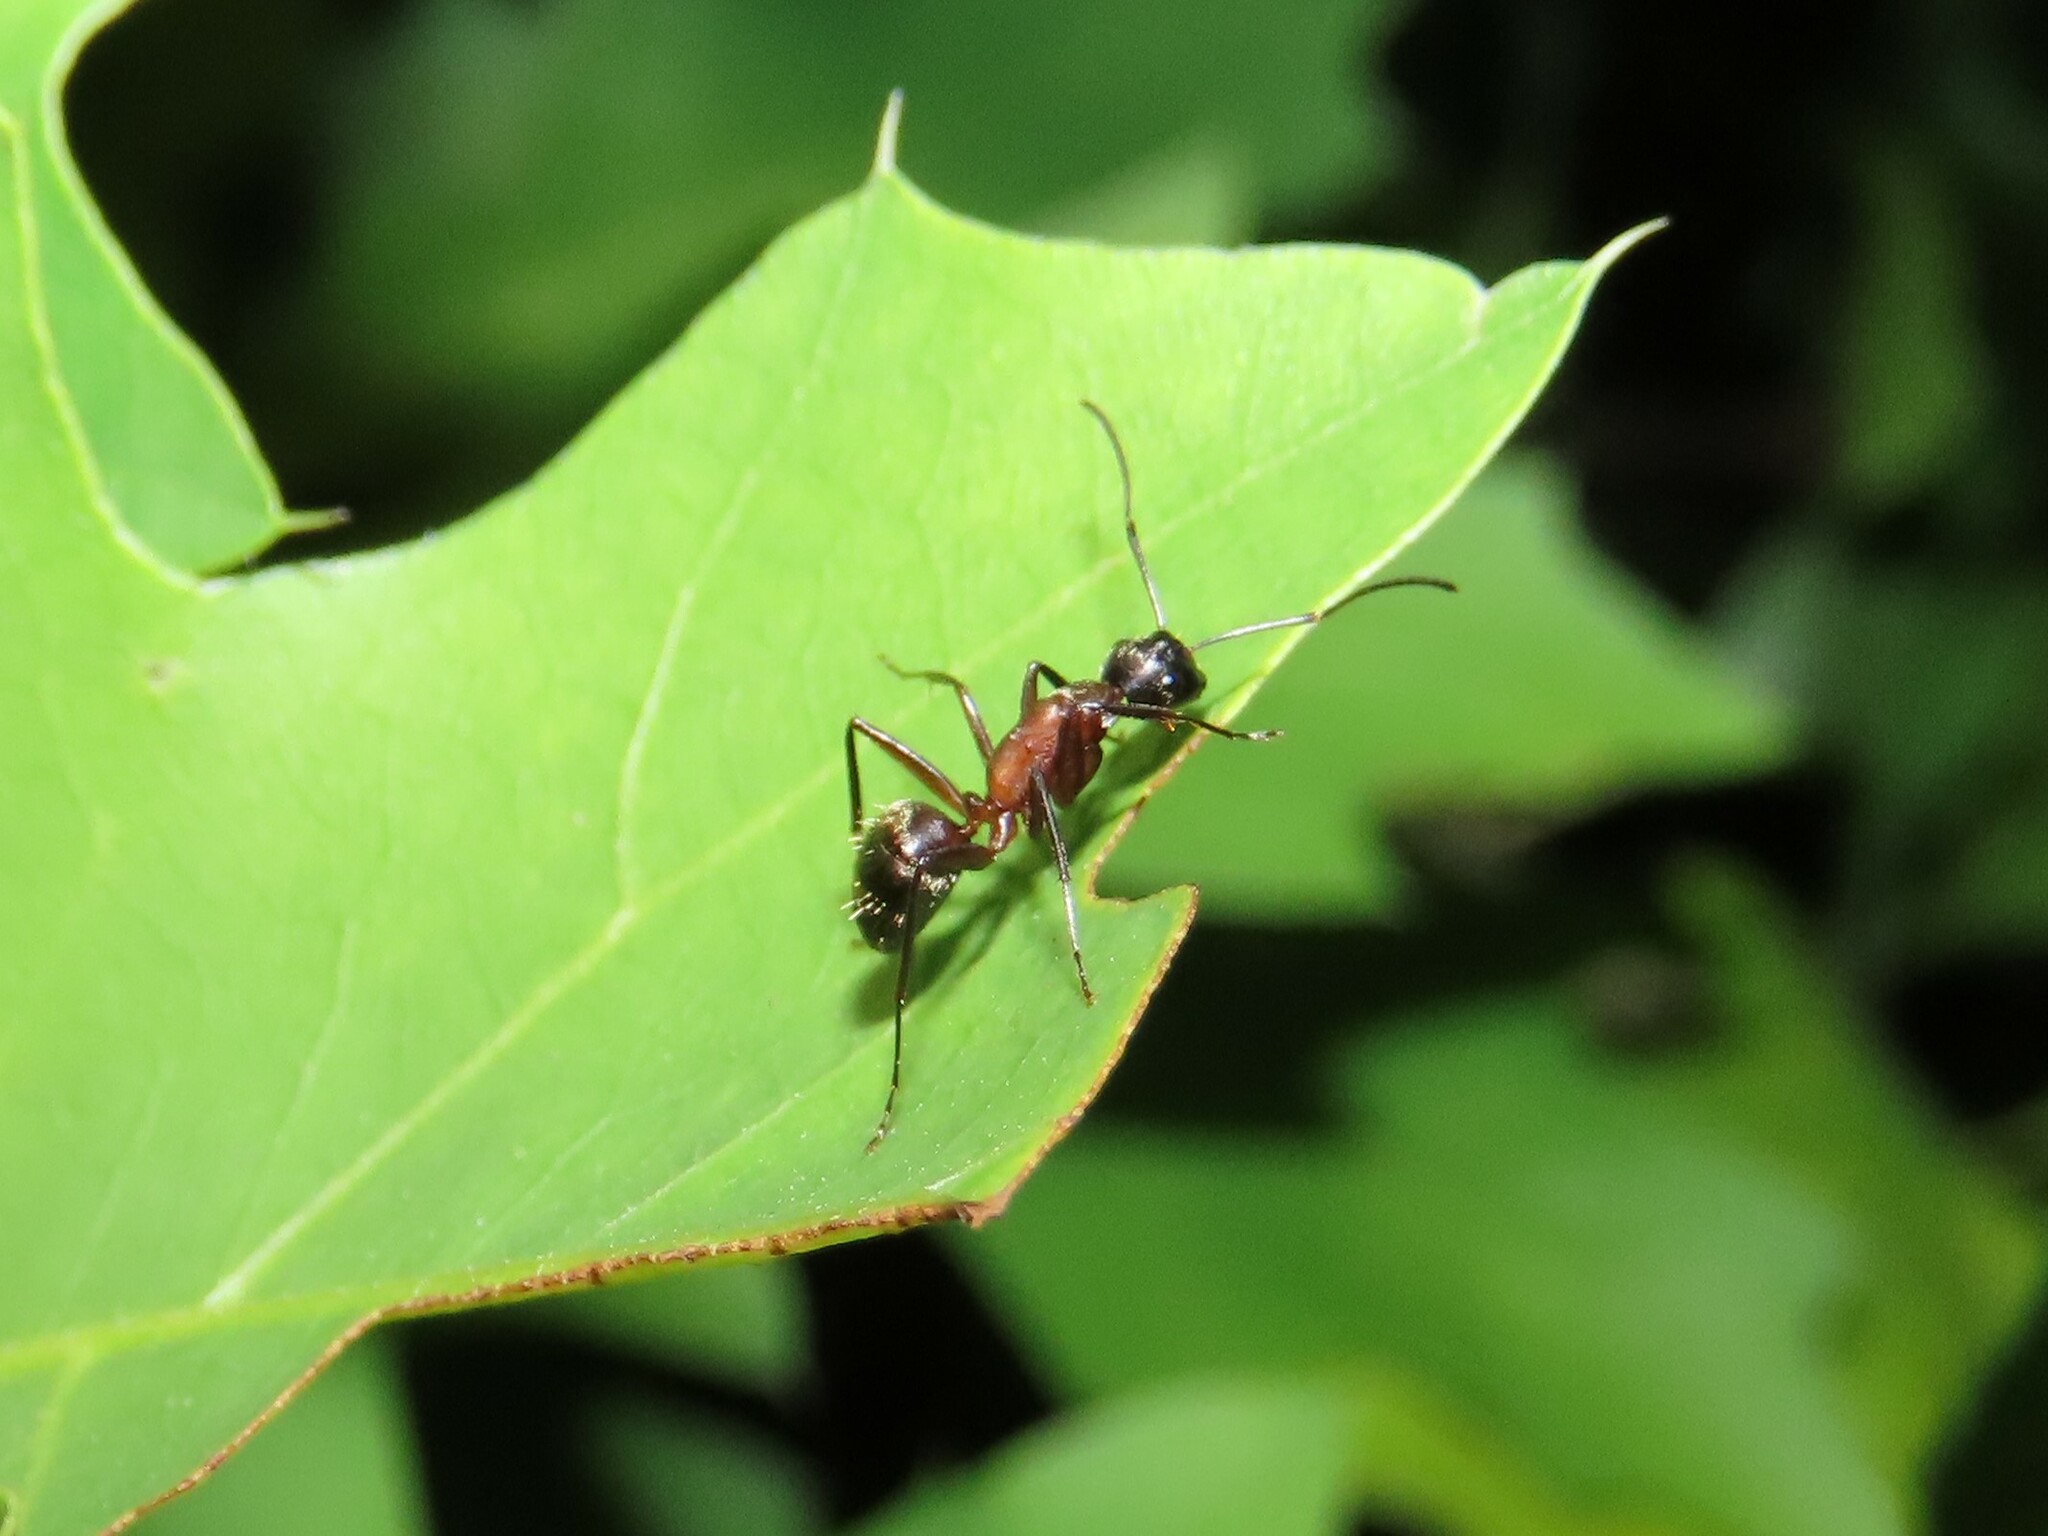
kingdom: Animalia
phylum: Arthropoda
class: Insecta
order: Hymenoptera
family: Formicidae
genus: Camponotus
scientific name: Camponotus chromaiodes
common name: Red carpenter ant
